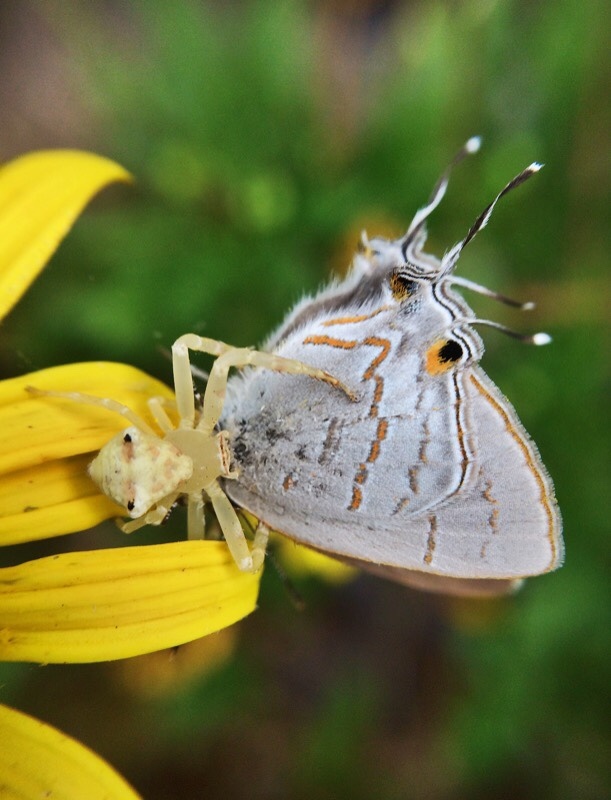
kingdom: Animalia
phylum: Arthropoda
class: Insecta
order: Lepidoptera
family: Lycaenidae
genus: Hypolycaena
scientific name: Hypolycaena philippus
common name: Common hairstreak
